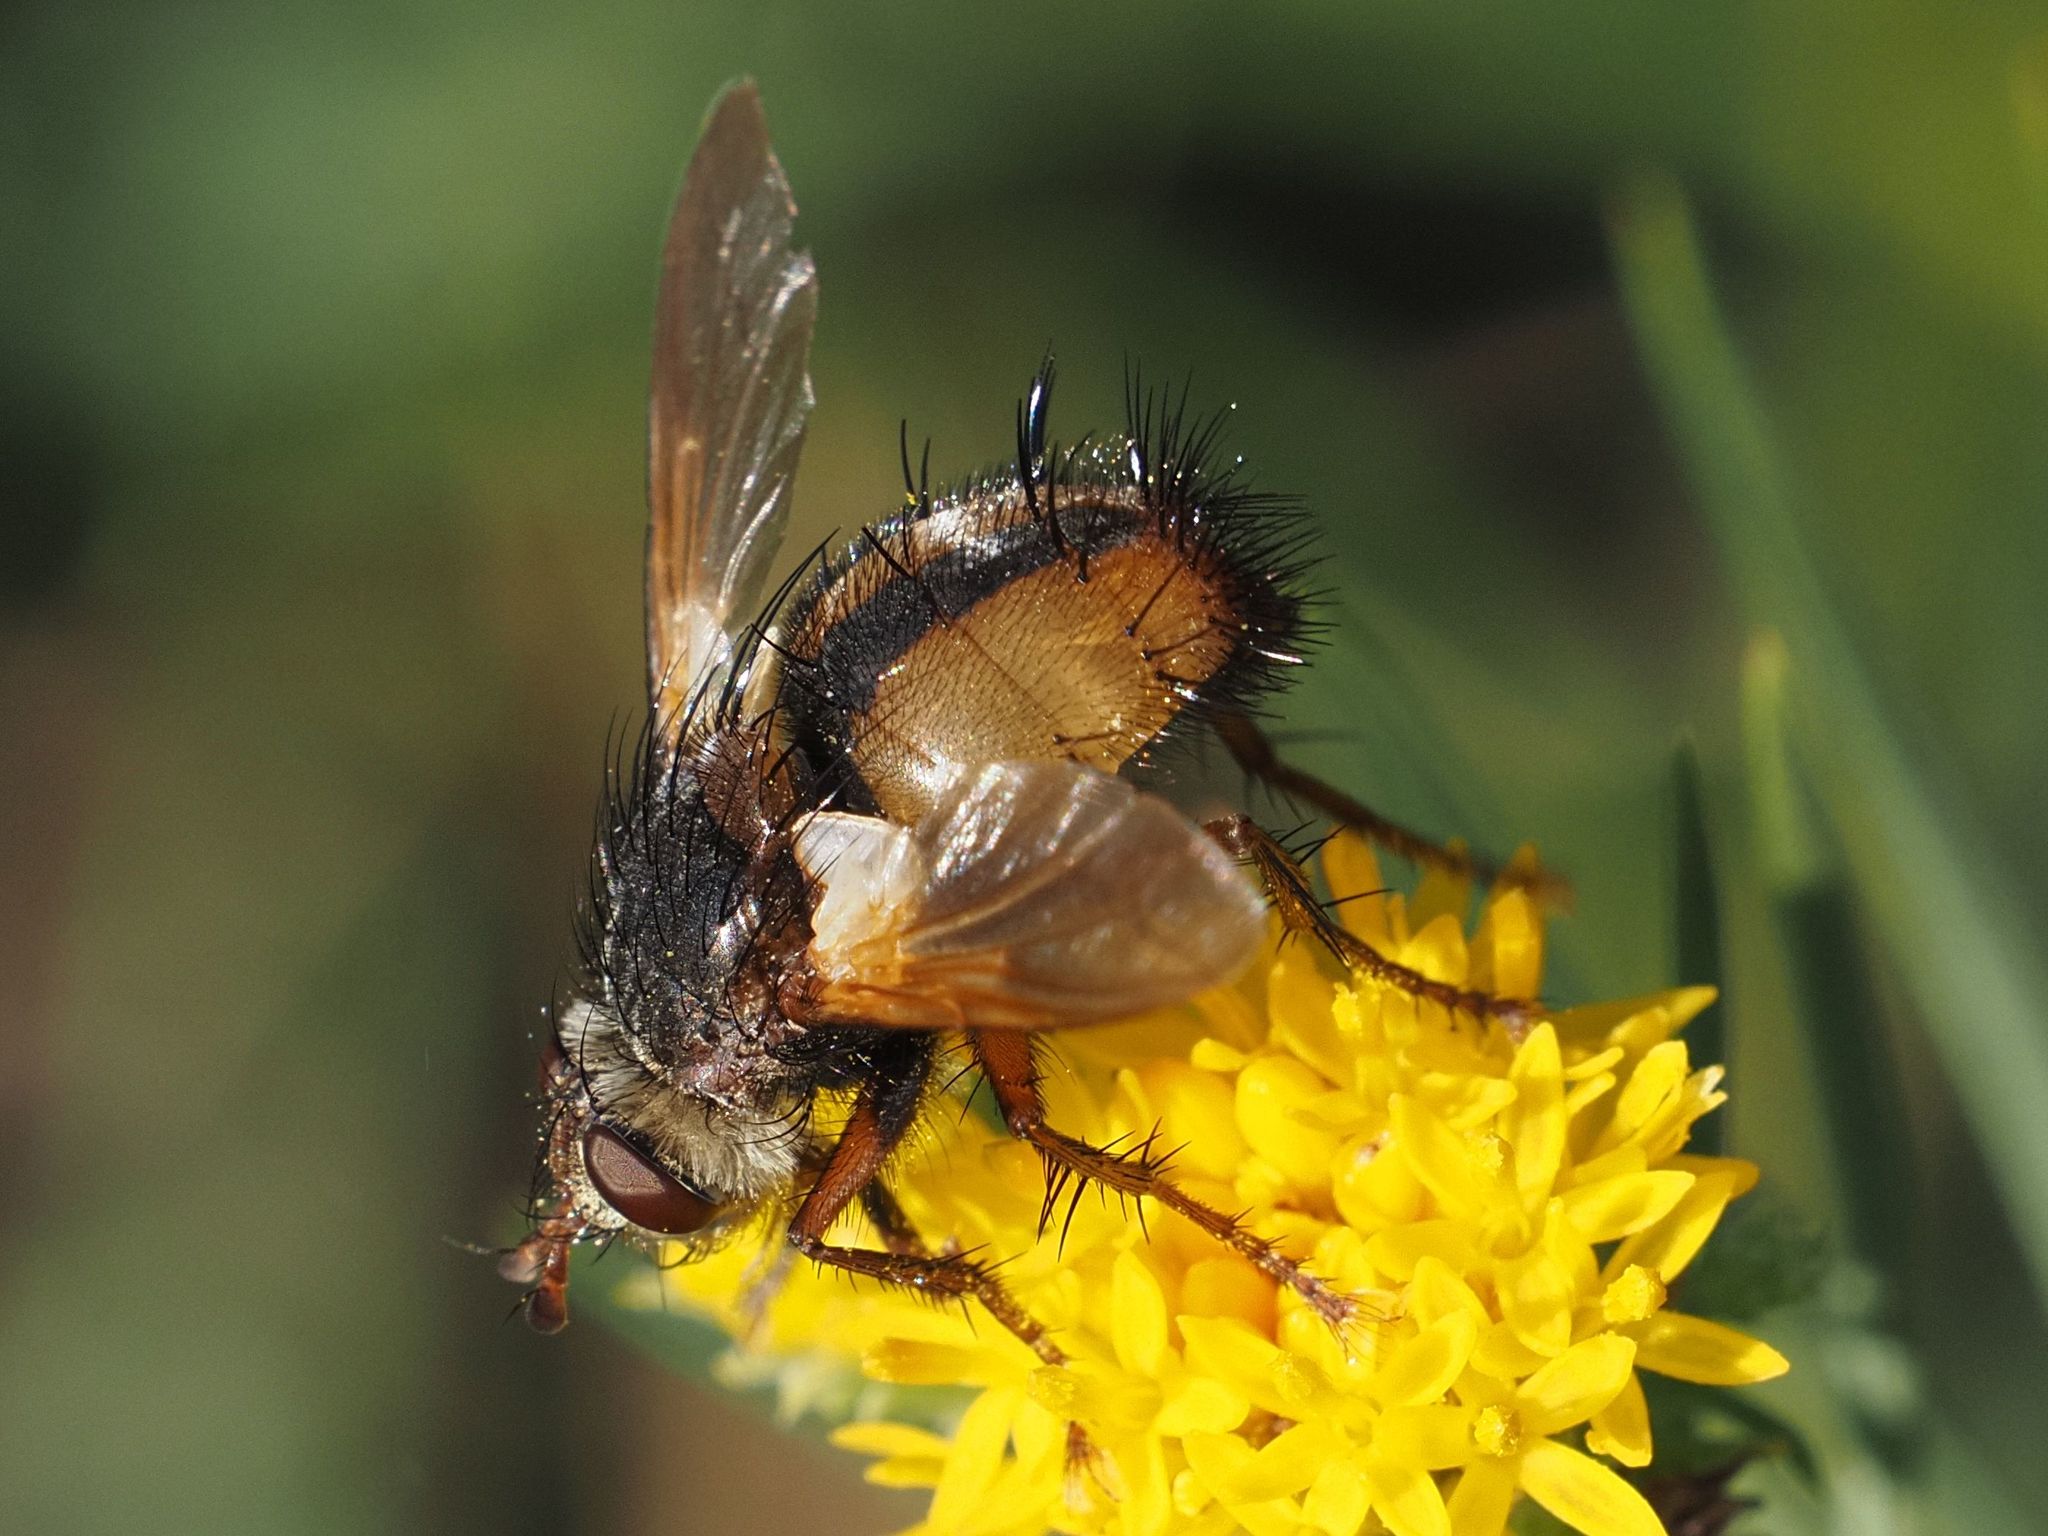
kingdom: Animalia
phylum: Arthropoda
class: Insecta
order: Diptera
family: Tachinidae
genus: Tachina
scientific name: Tachina fera
